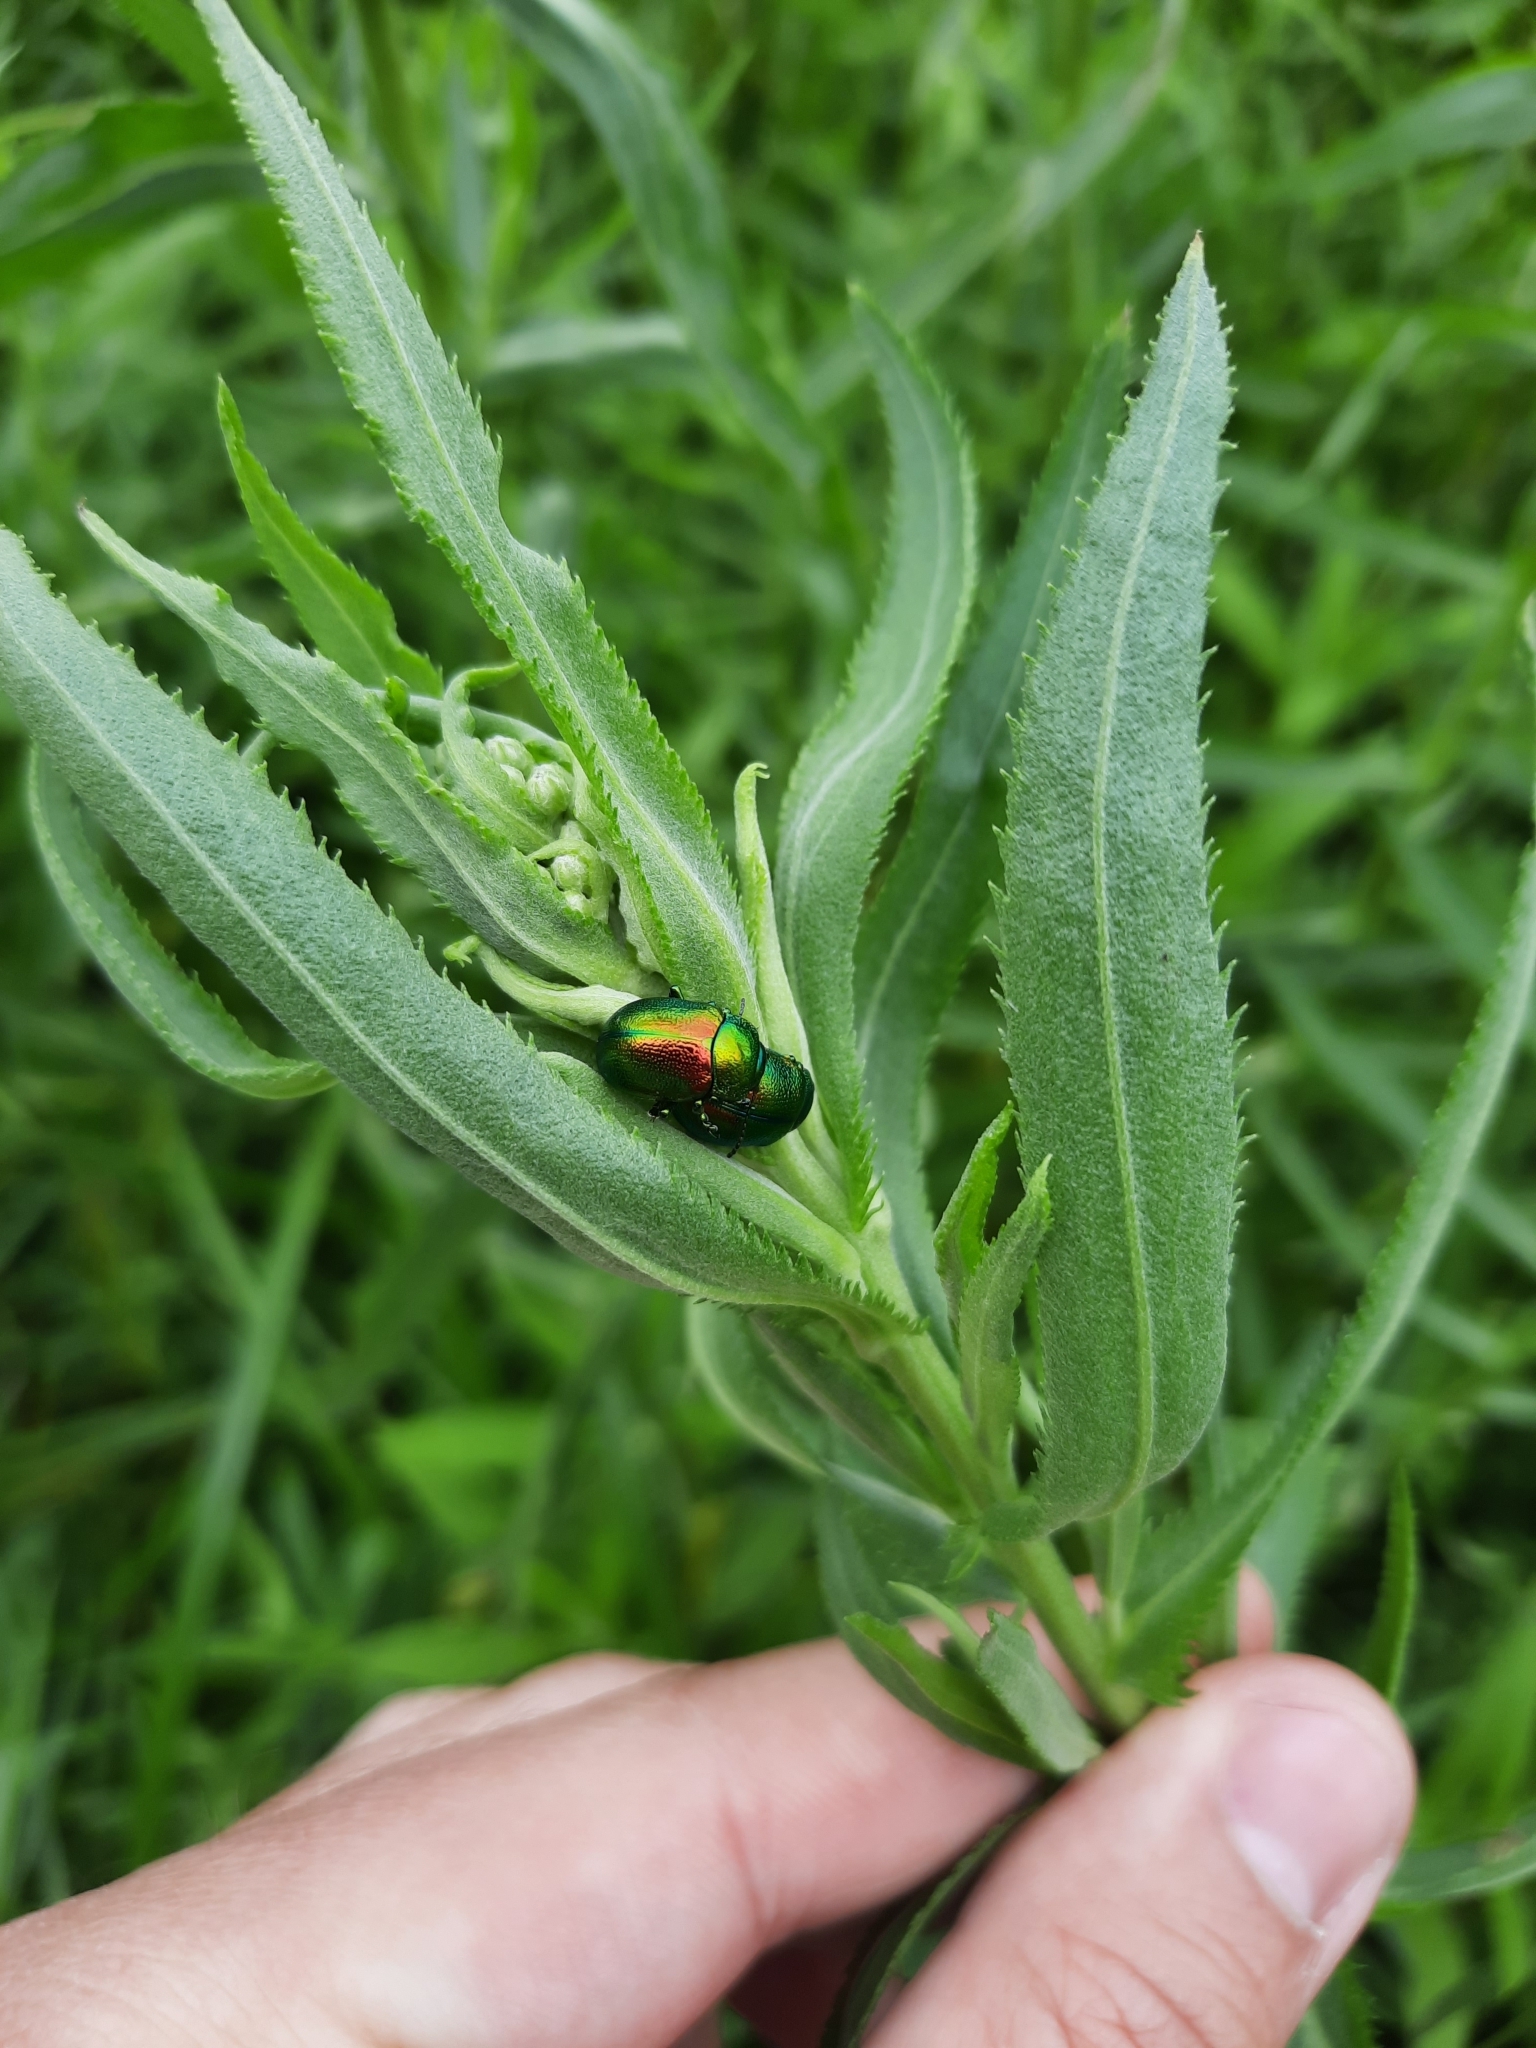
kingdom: Animalia
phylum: Arthropoda
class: Insecta
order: Coleoptera
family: Chrysomelidae
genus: Chrysolina
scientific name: Chrysolina graminis
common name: Tansey beetle
